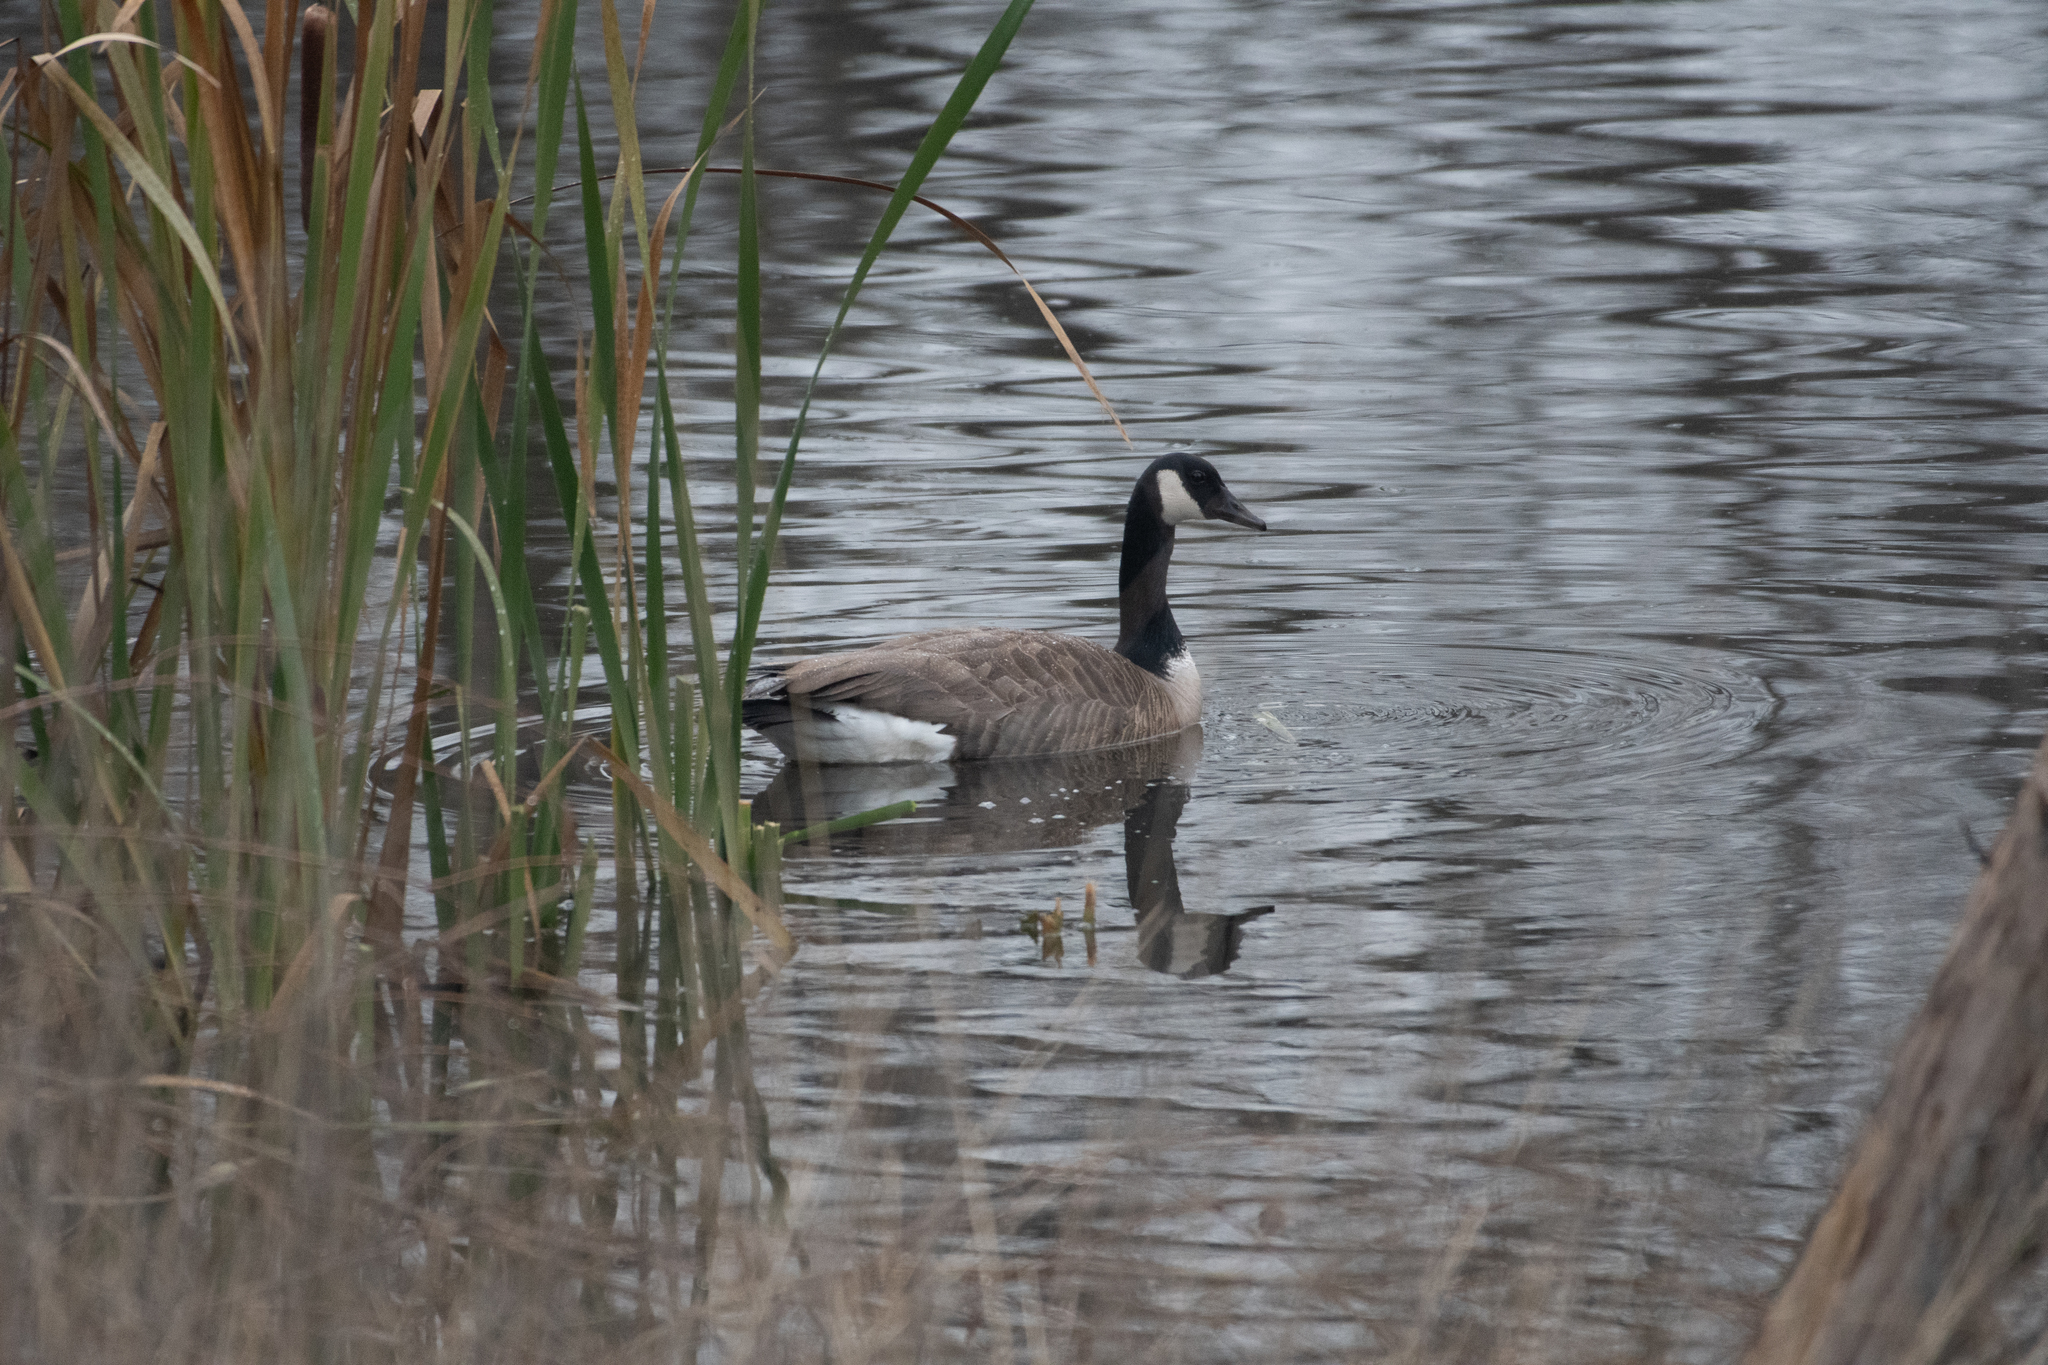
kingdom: Animalia
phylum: Chordata
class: Aves
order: Anseriformes
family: Anatidae
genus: Branta
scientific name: Branta canadensis
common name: Canada goose
